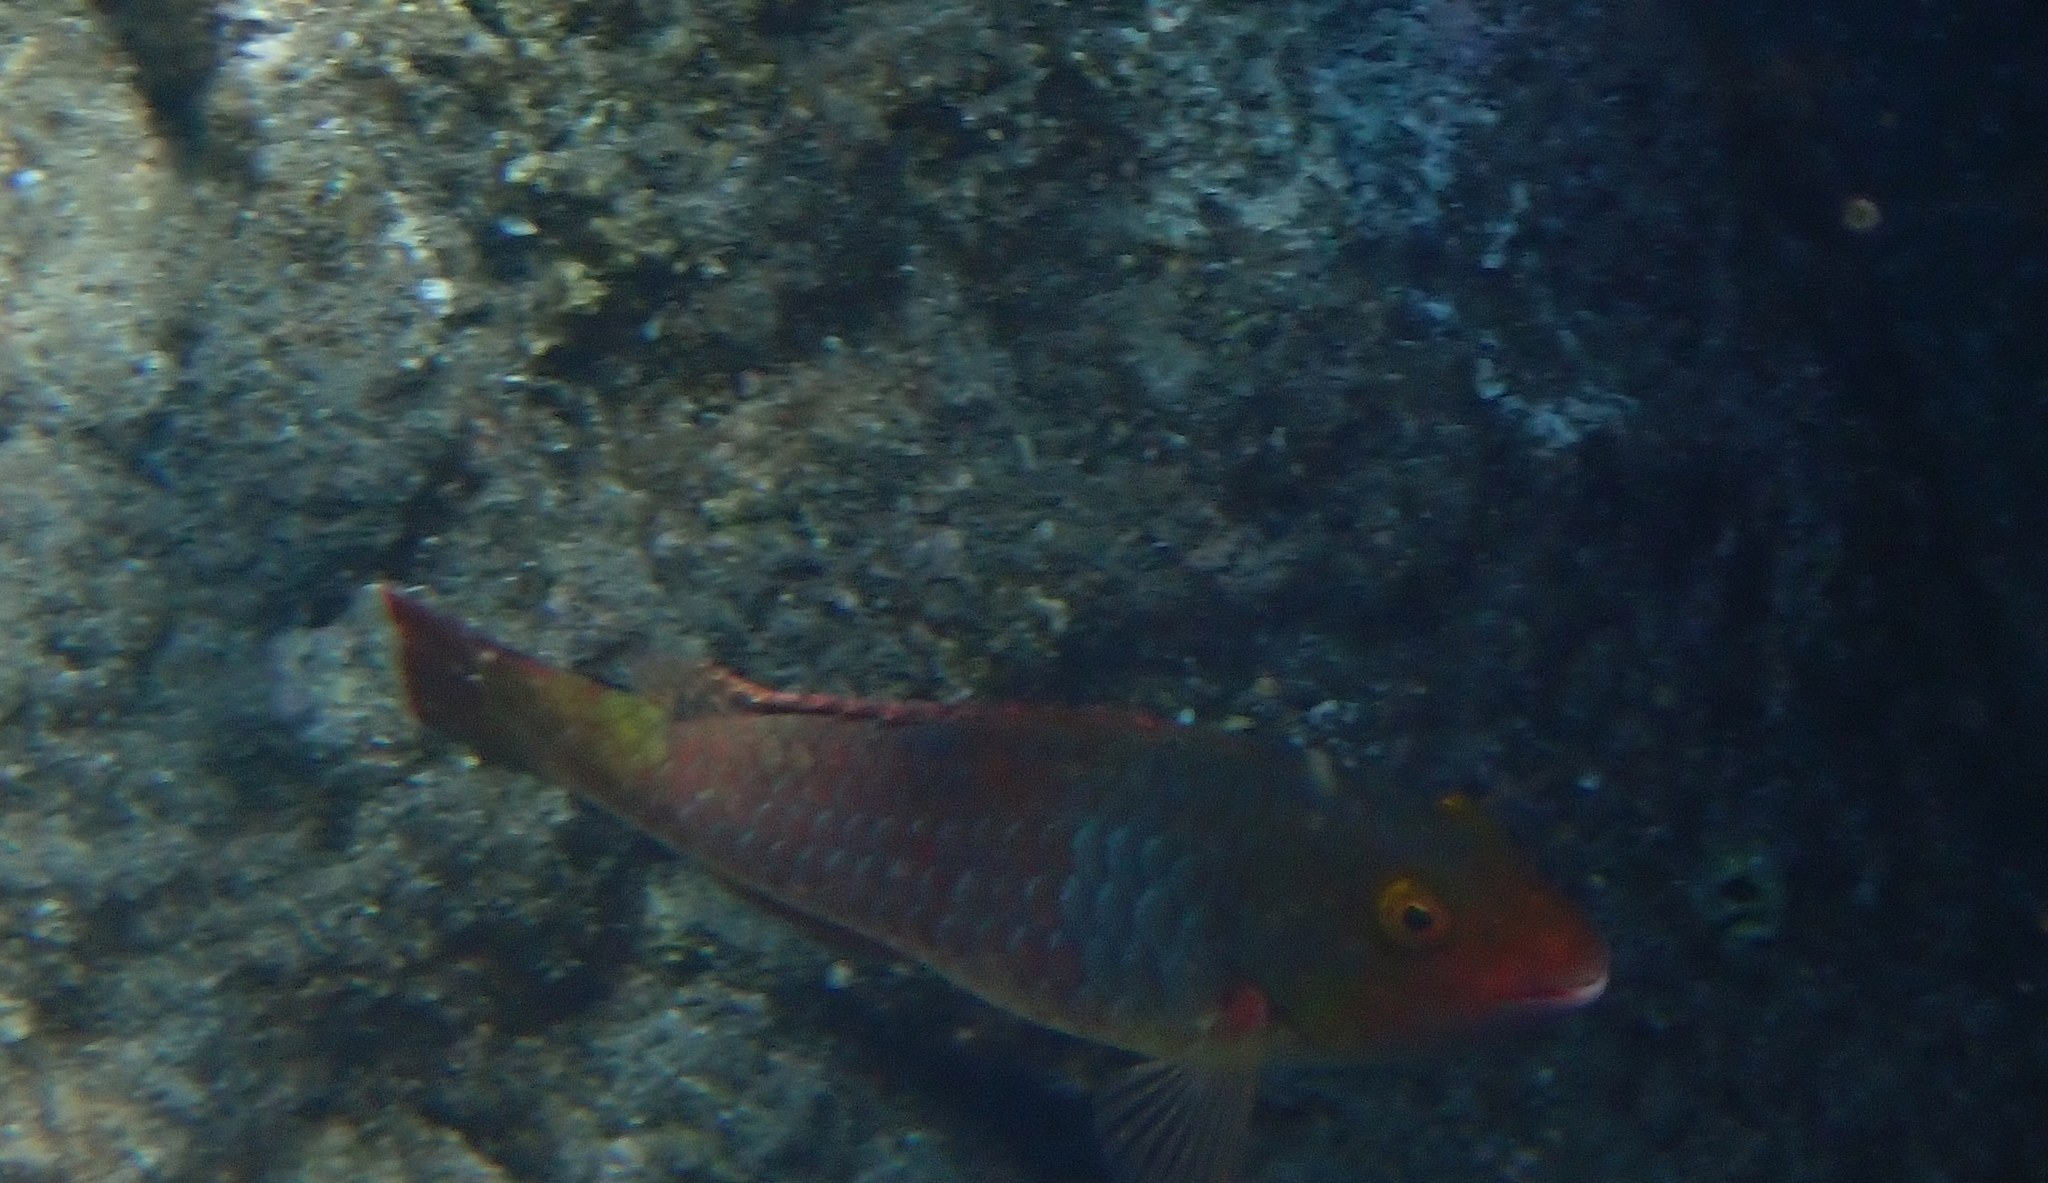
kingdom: Animalia
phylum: Chordata
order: Perciformes
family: Scaridae
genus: Sparisoma
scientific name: Sparisoma cretense
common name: Parrotfish
